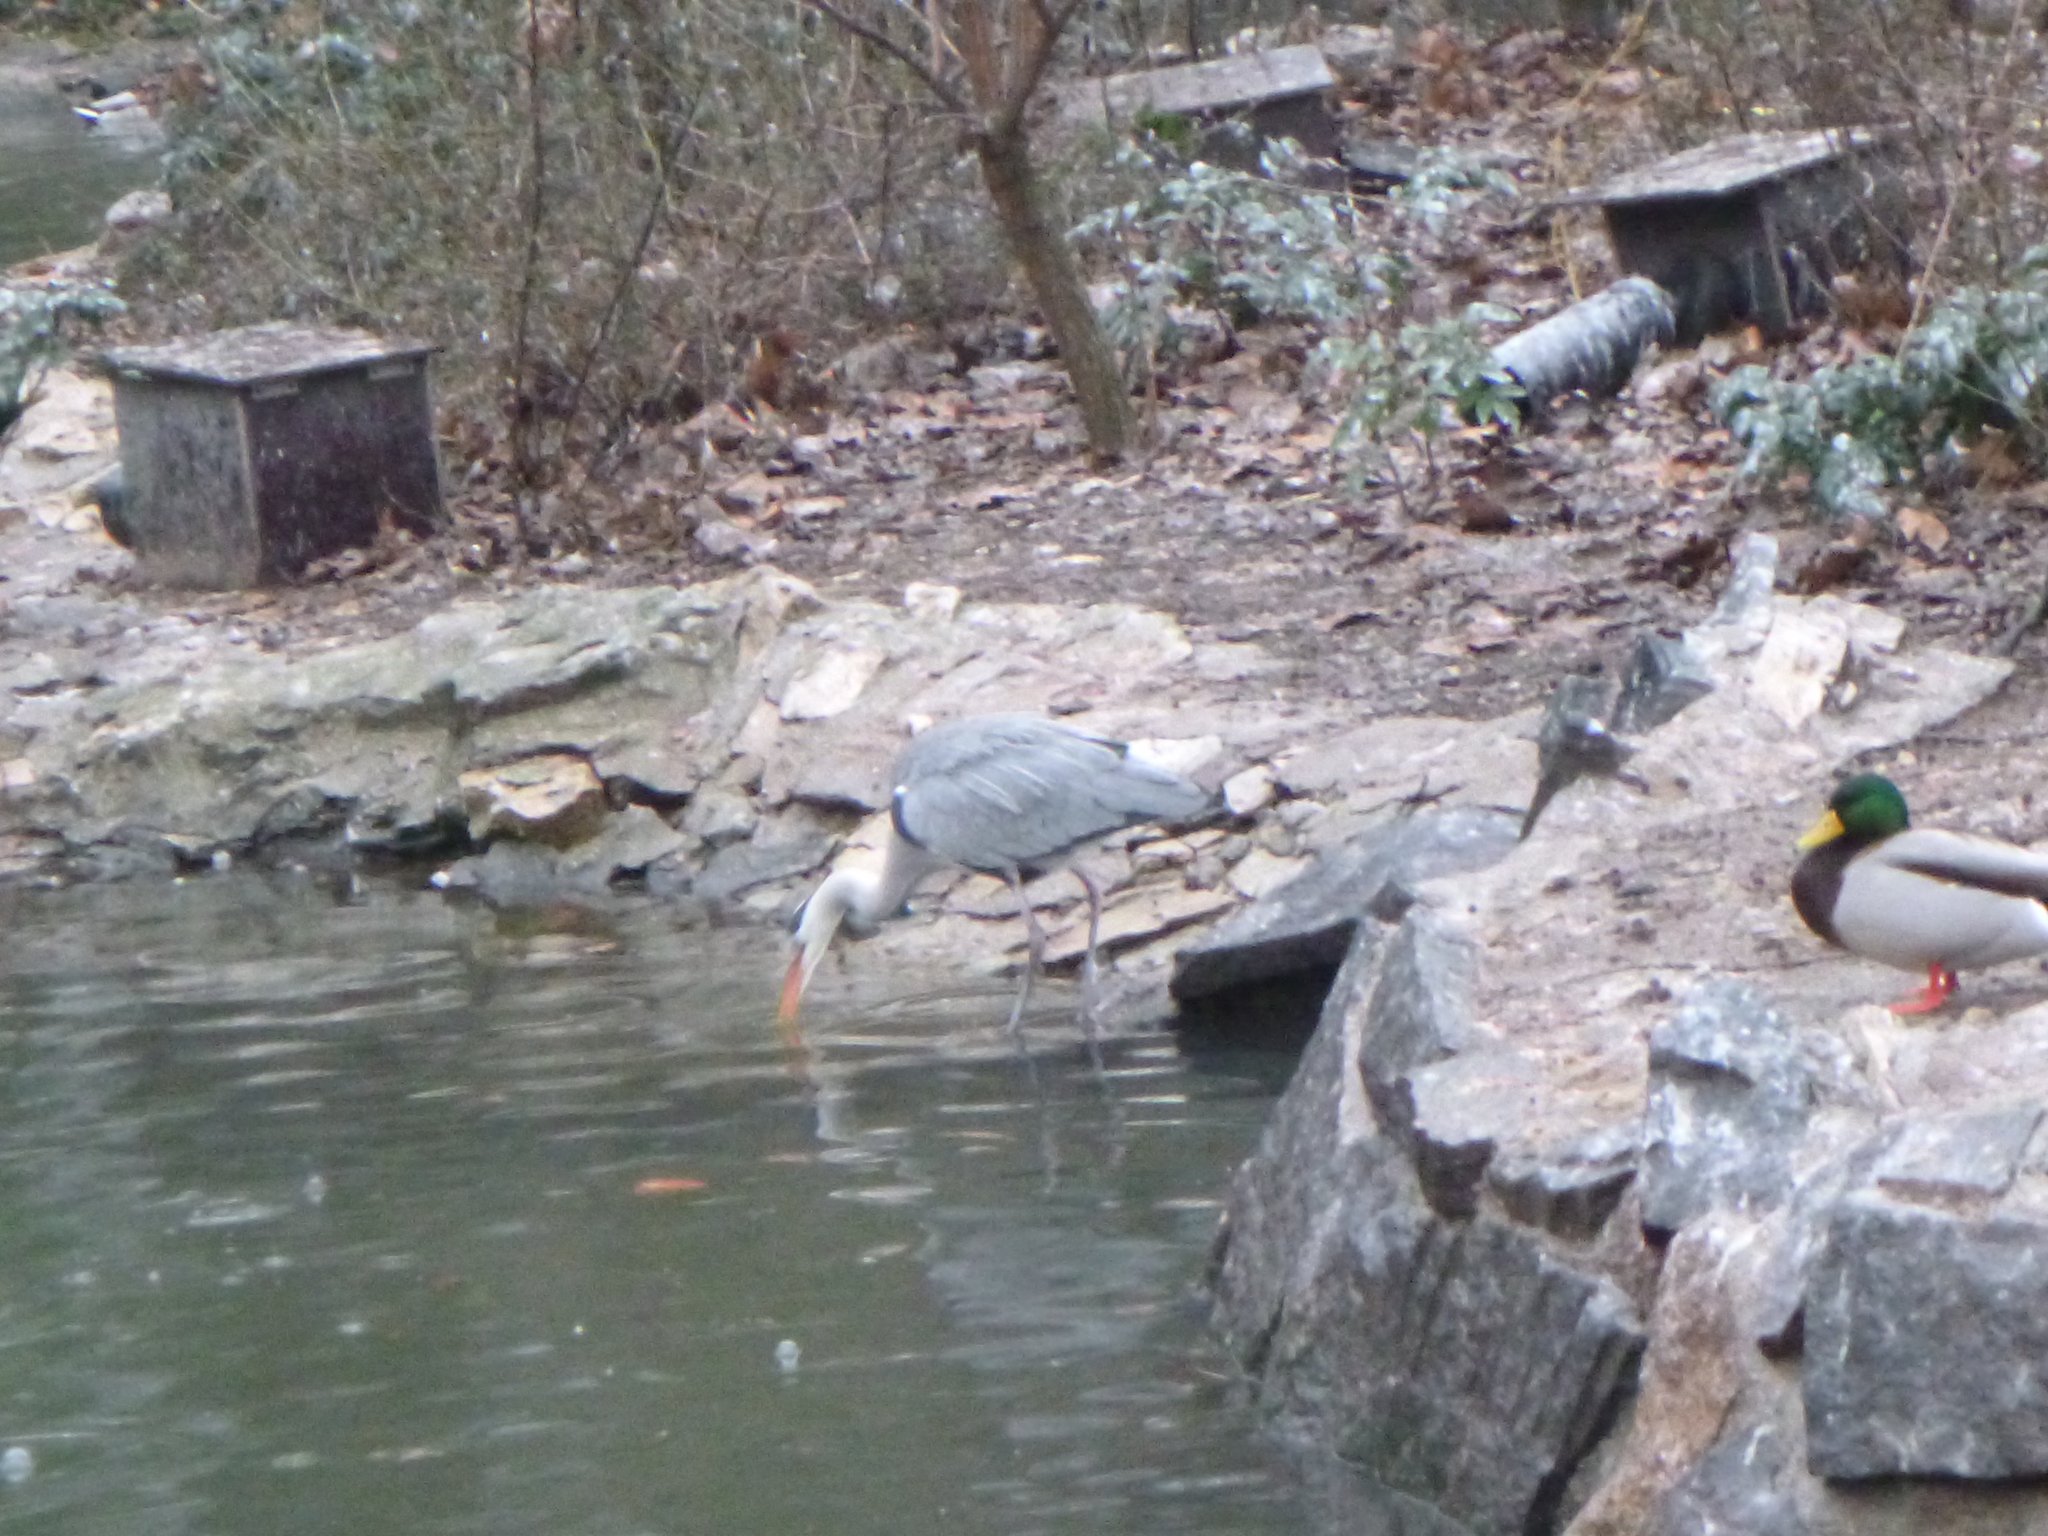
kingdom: Animalia
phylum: Chordata
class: Aves
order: Pelecaniformes
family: Ardeidae
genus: Ardea
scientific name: Ardea cinerea
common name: Grey heron
